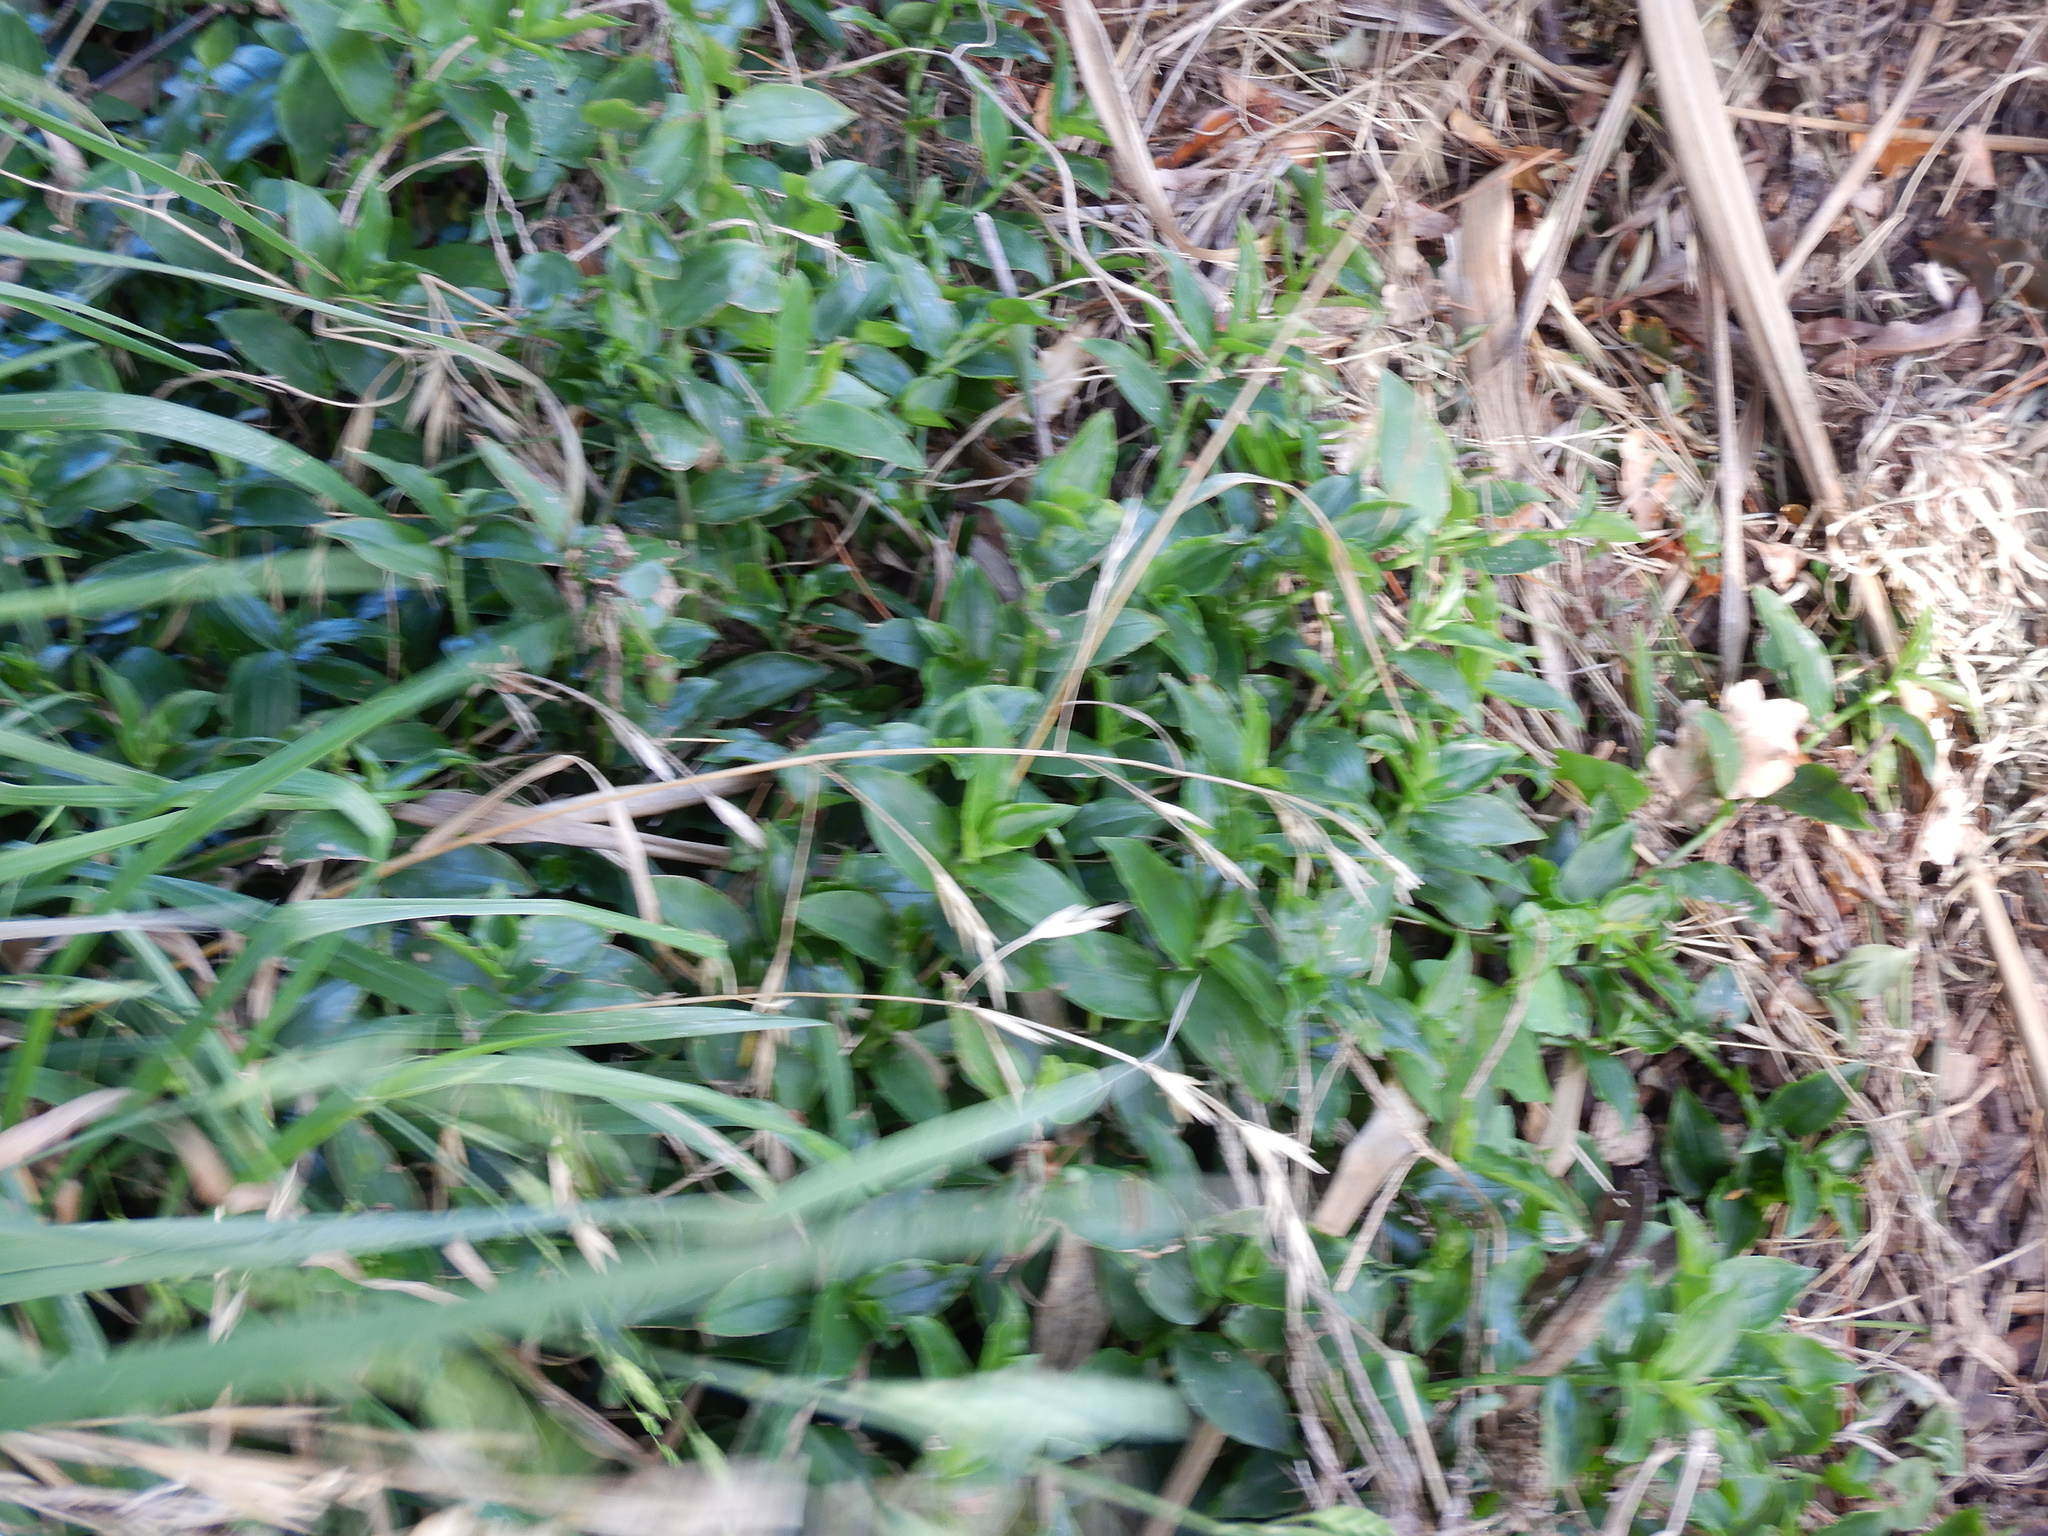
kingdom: Plantae
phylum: Tracheophyta
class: Liliopsida
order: Commelinales
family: Commelinaceae
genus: Tradescantia
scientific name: Tradescantia fluminensis
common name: Wandering-jew
